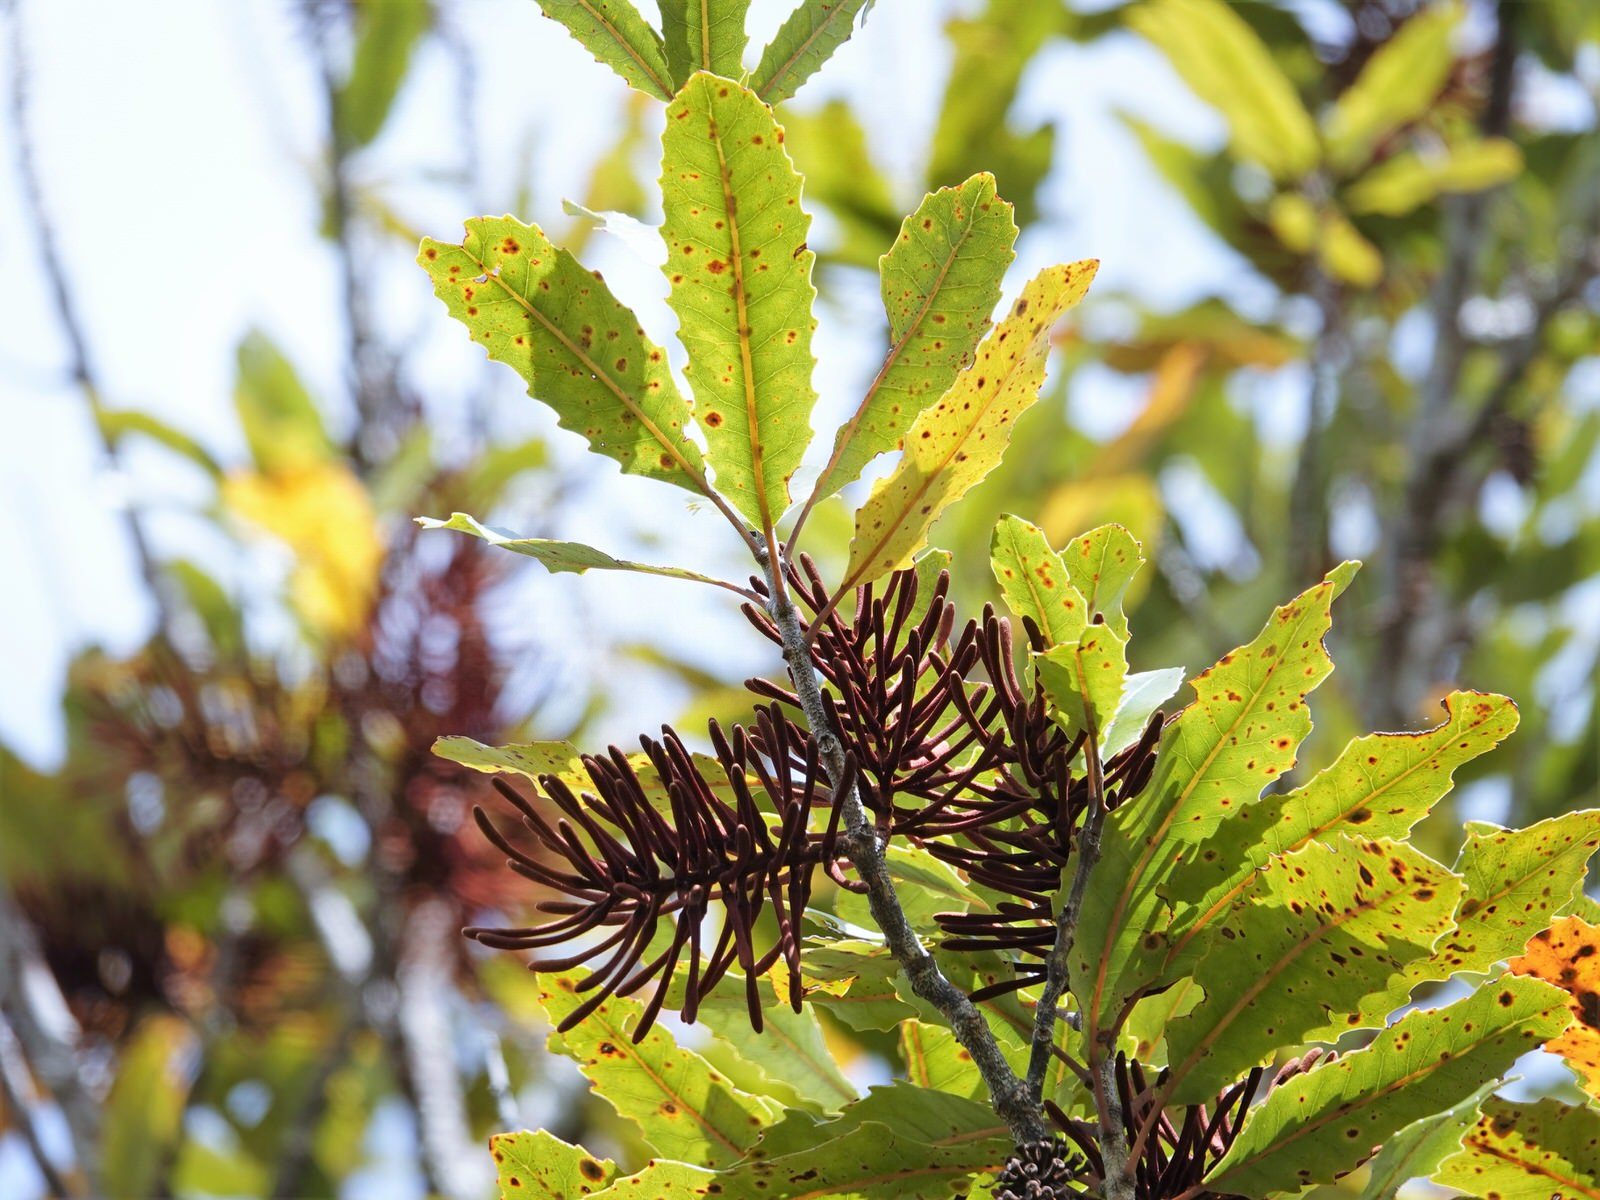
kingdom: Plantae
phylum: Tracheophyta
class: Magnoliopsida
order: Proteales
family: Proteaceae
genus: Knightia
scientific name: Knightia excelsa
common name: New zealand-honeysuckle
